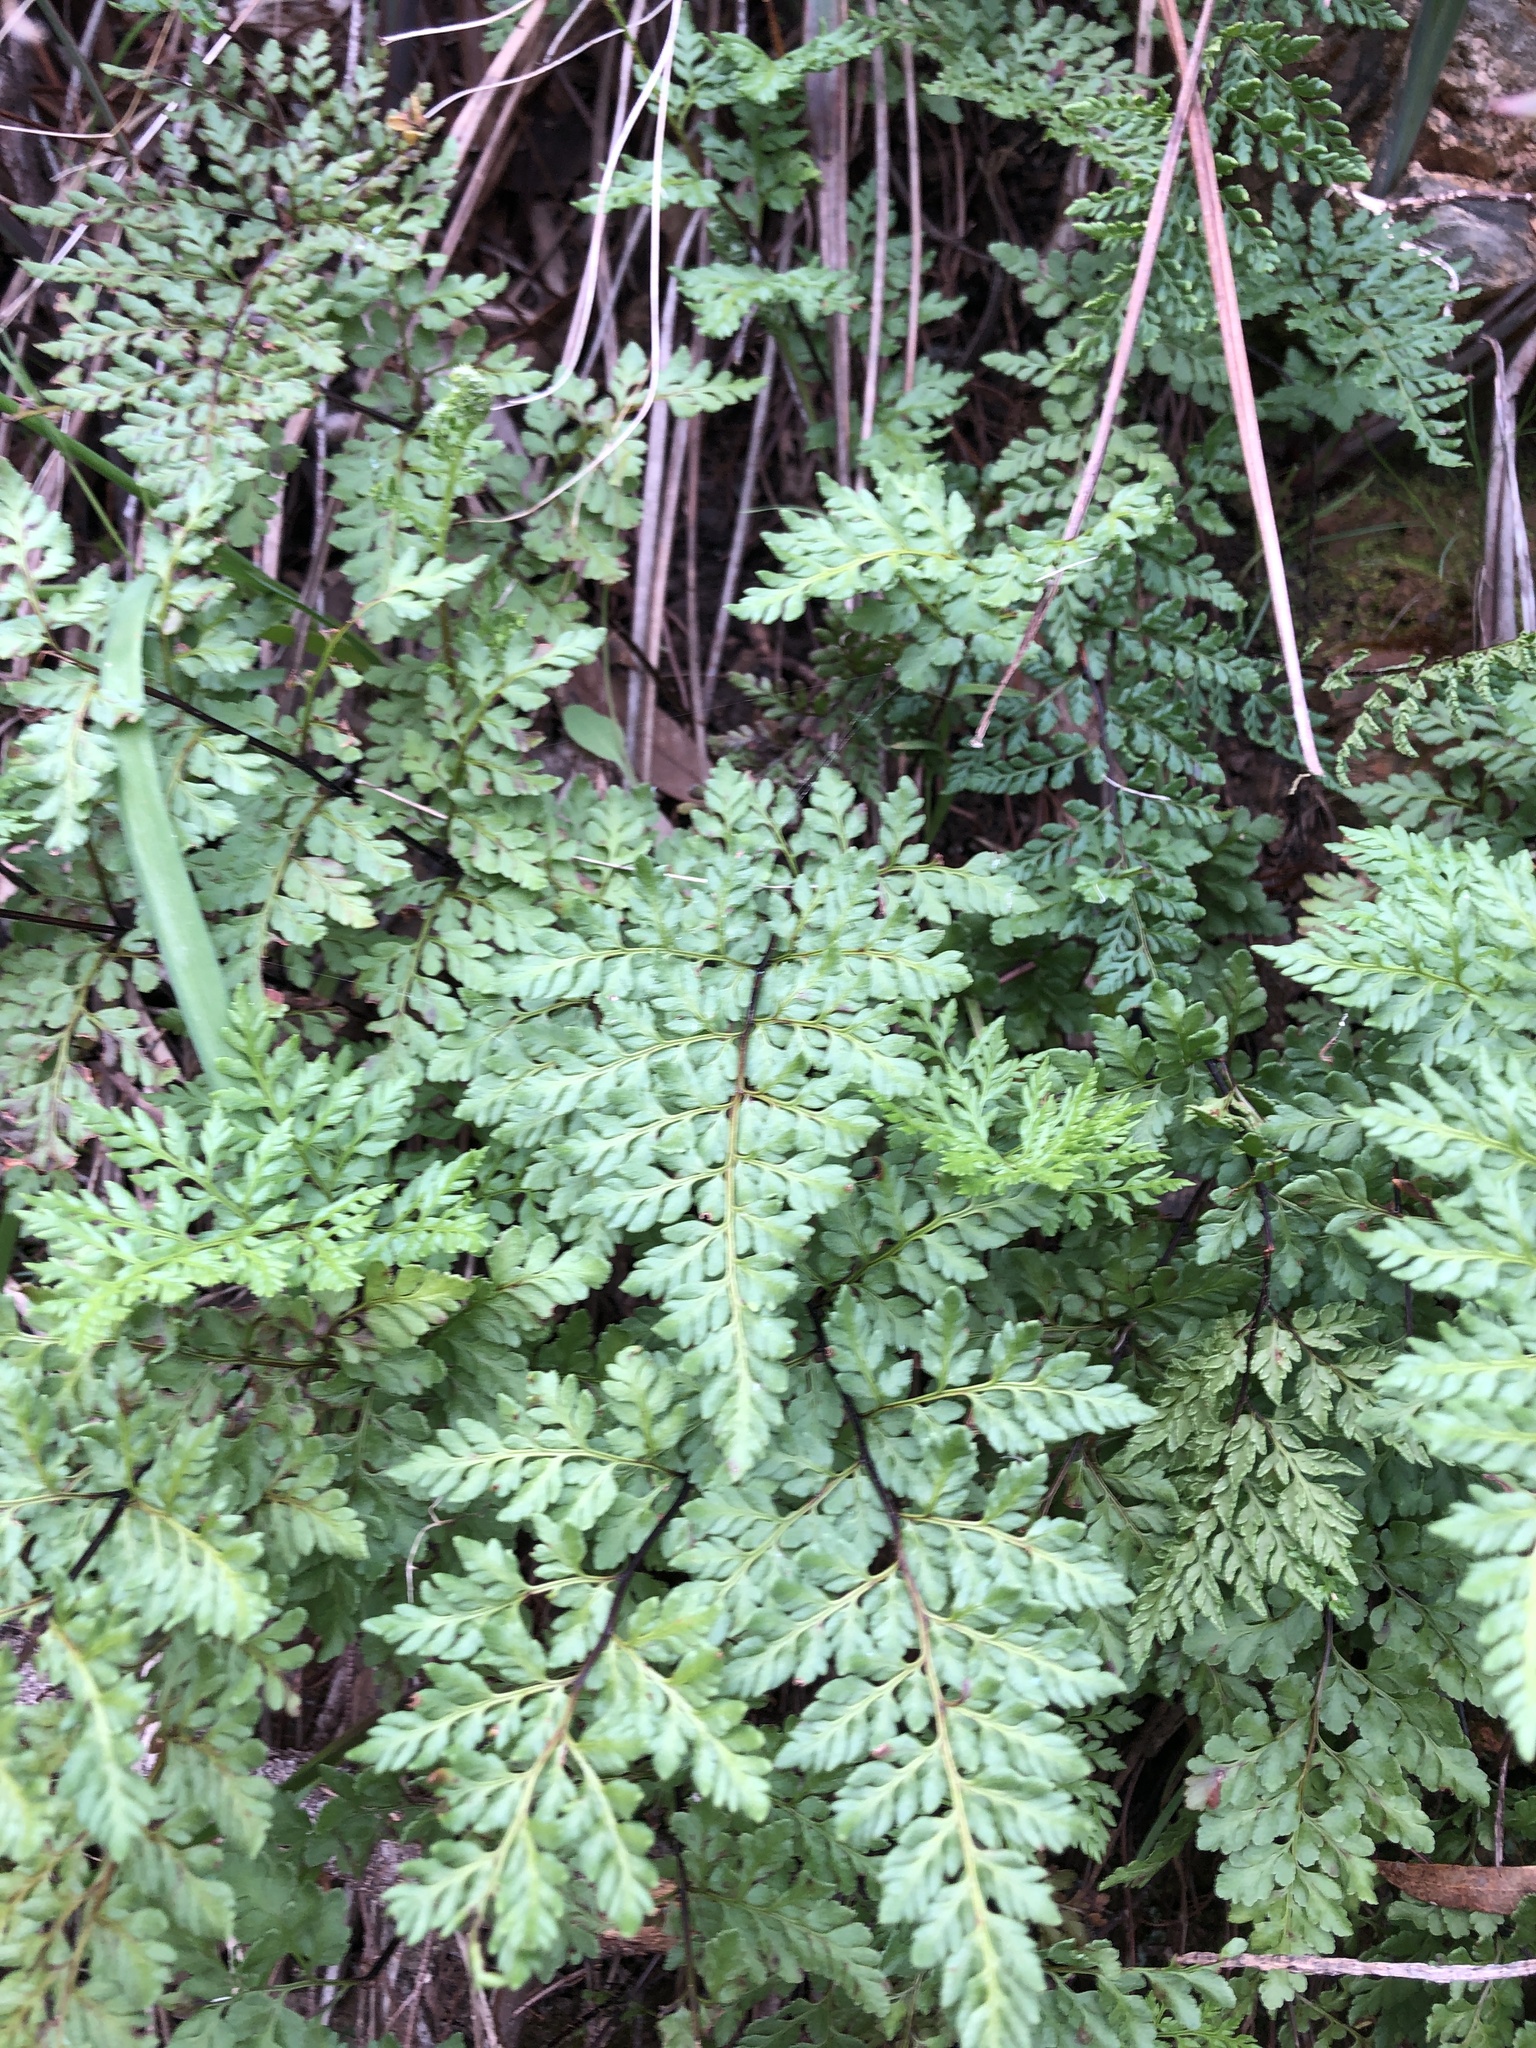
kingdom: Plantae
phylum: Tracheophyta
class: Polypodiopsida
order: Polypodiales
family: Pteridaceae
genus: Cheilanthes
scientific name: Cheilanthes austrotenuifolia
